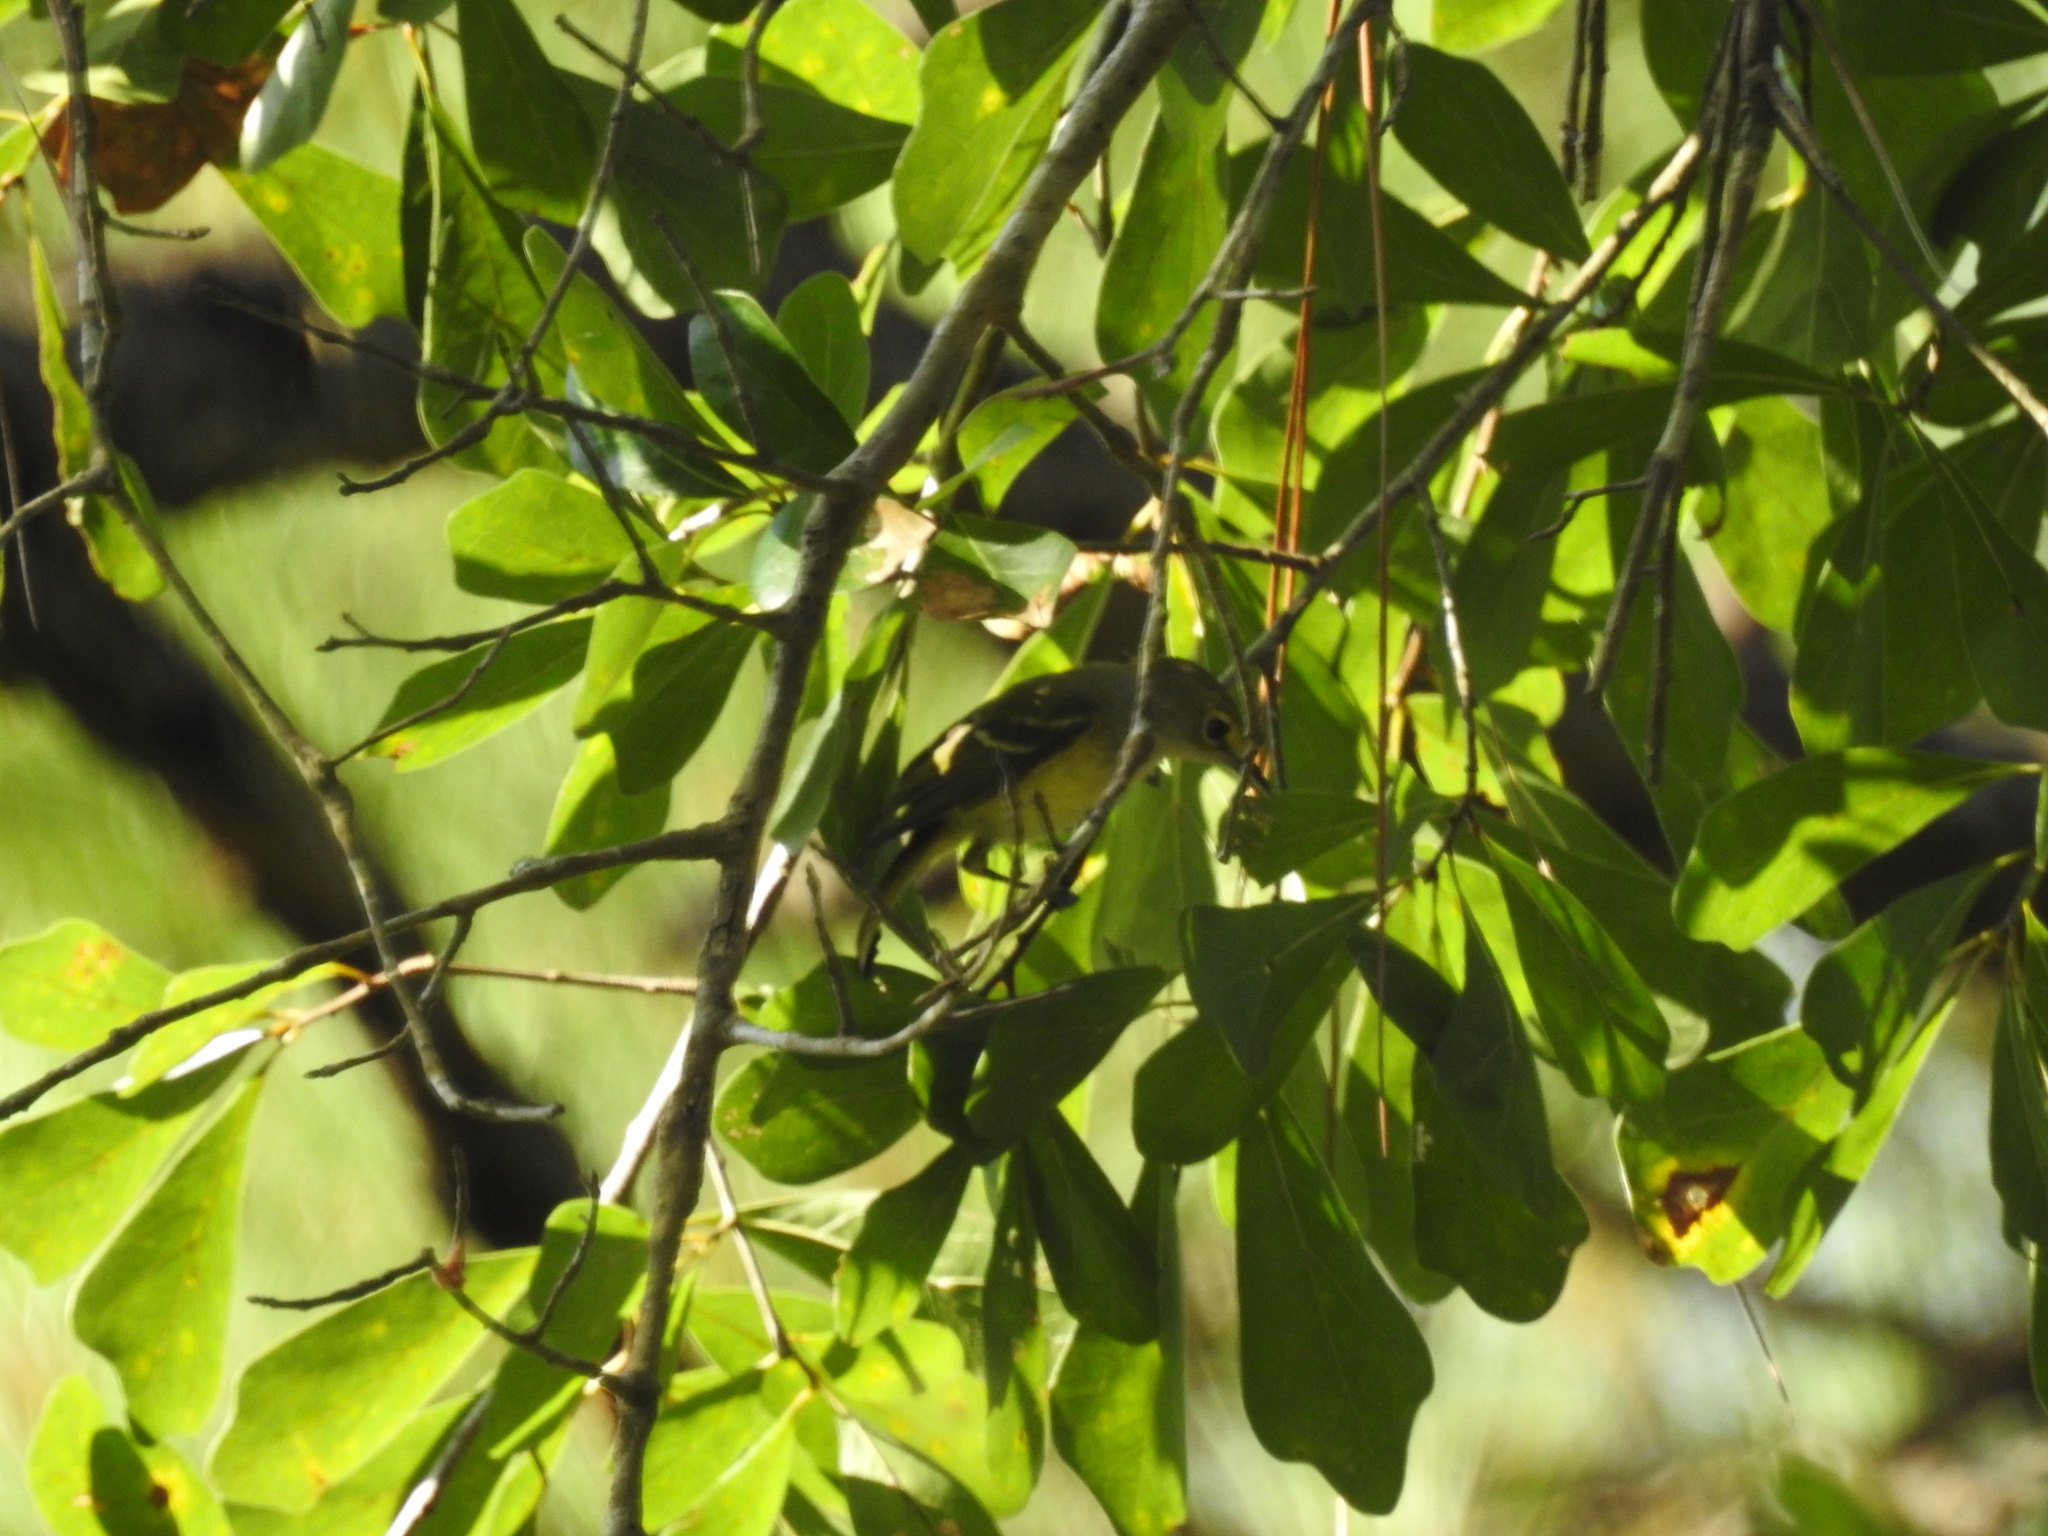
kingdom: Animalia
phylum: Chordata
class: Aves
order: Passeriformes
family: Vireonidae
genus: Vireo
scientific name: Vireo flavifrons
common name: Yellow-throated vireo
